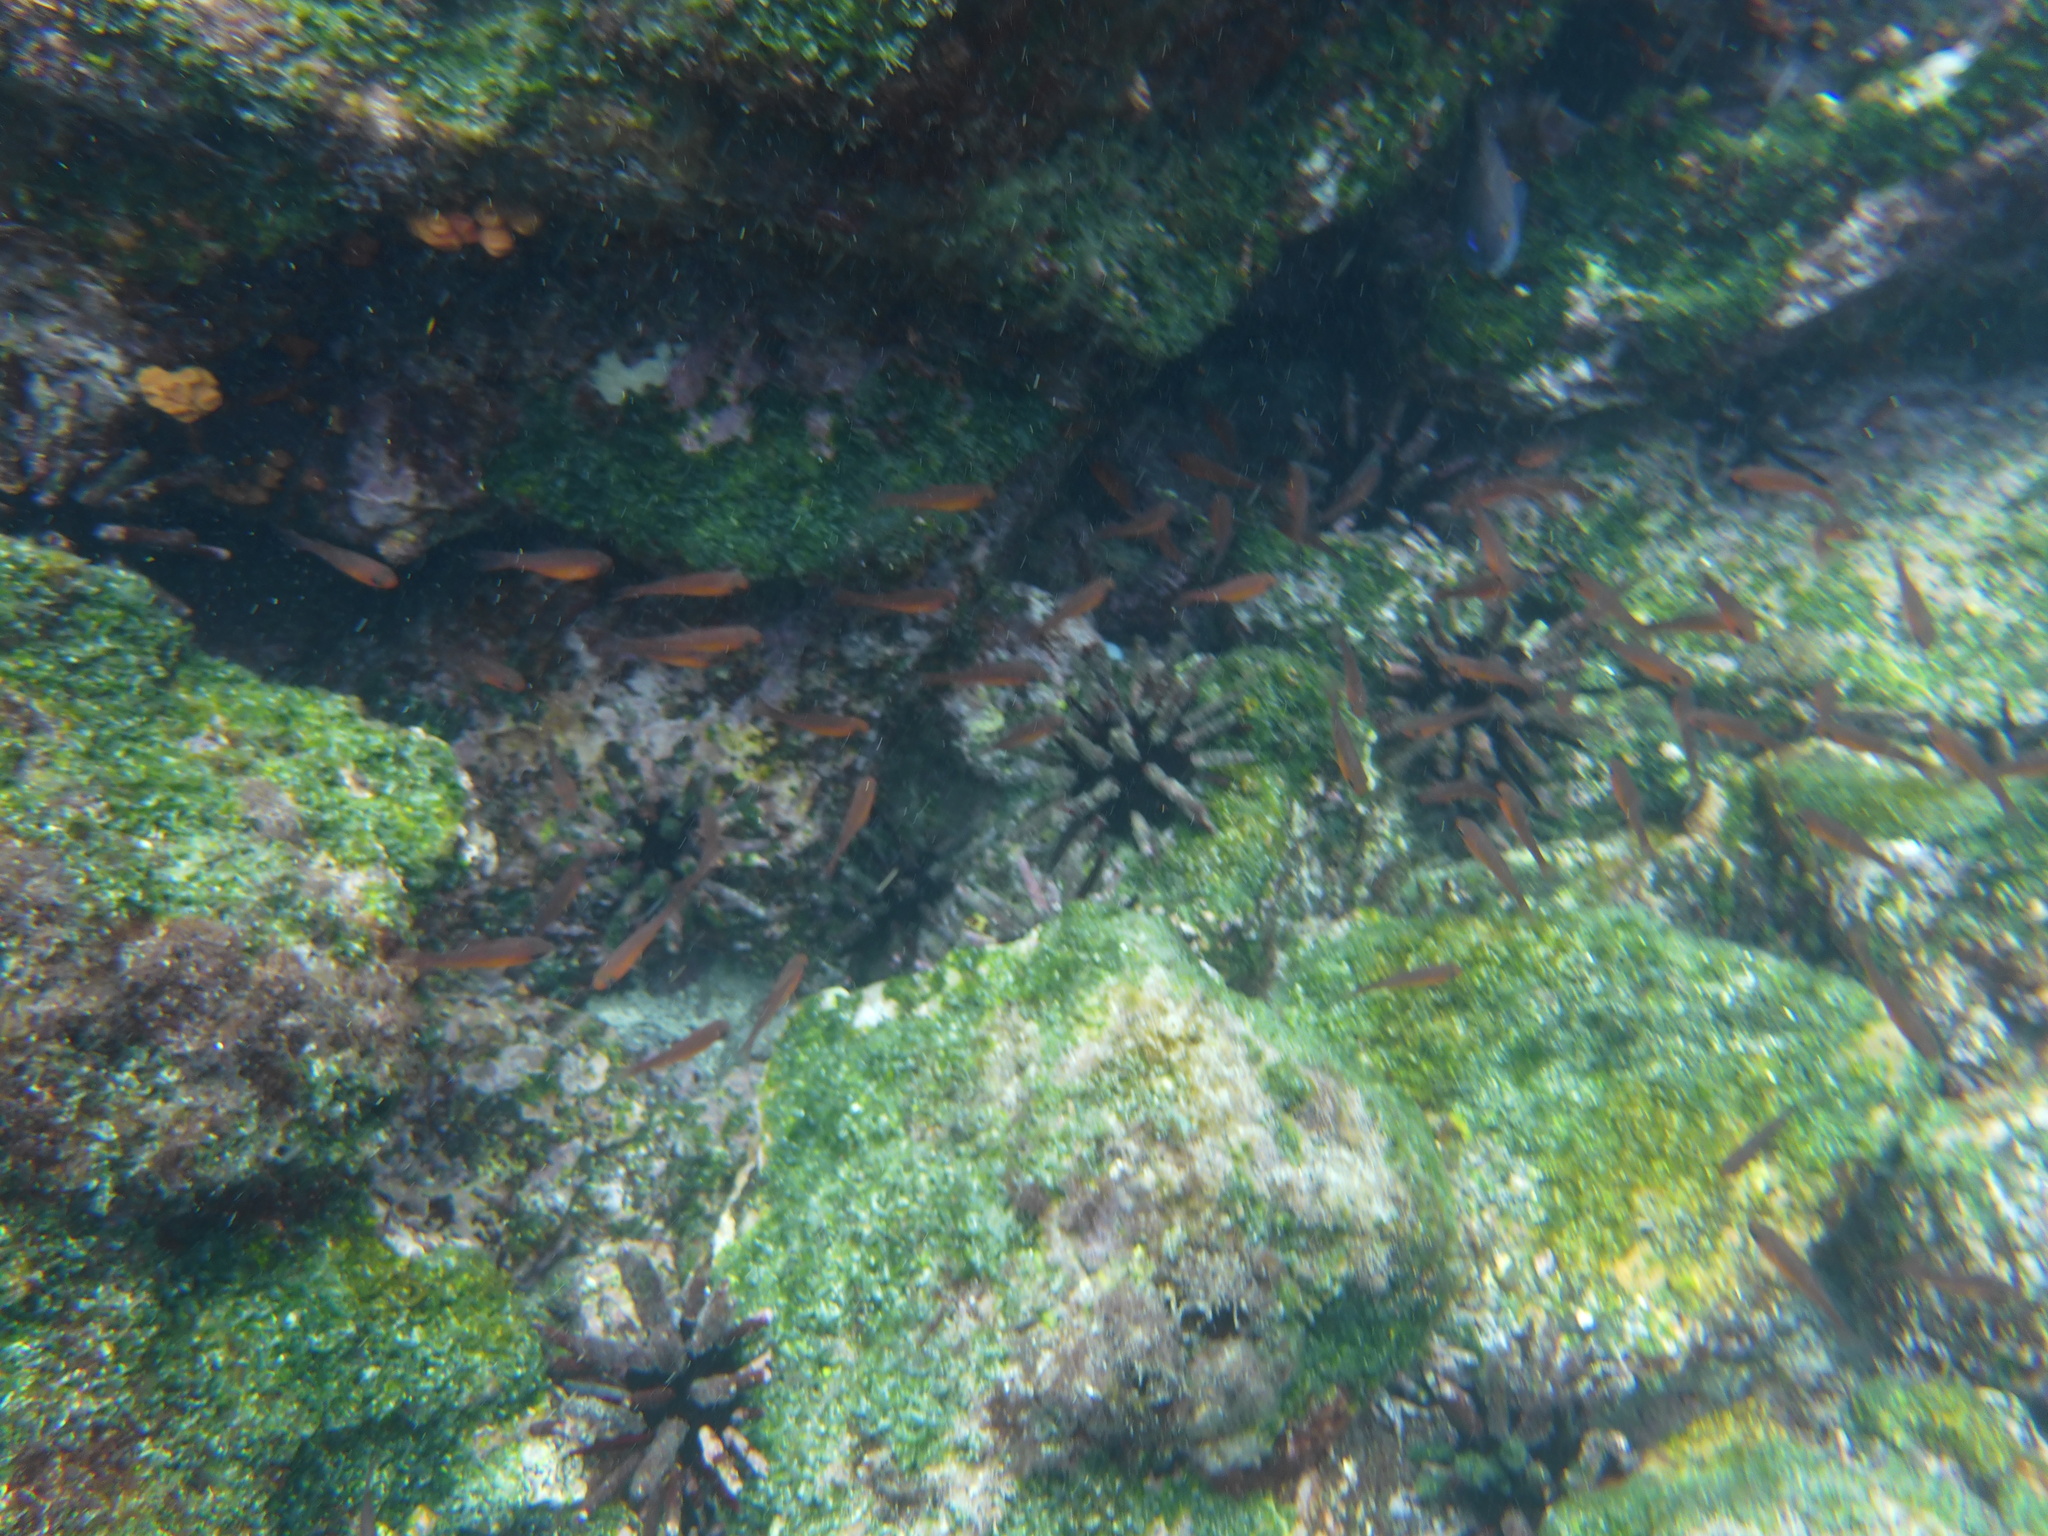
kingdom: Animalia
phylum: Chordata
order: Perciformes
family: Apogonidae
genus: Apogon
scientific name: Apogon atradorsatus
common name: Blacktip cardinalfish
